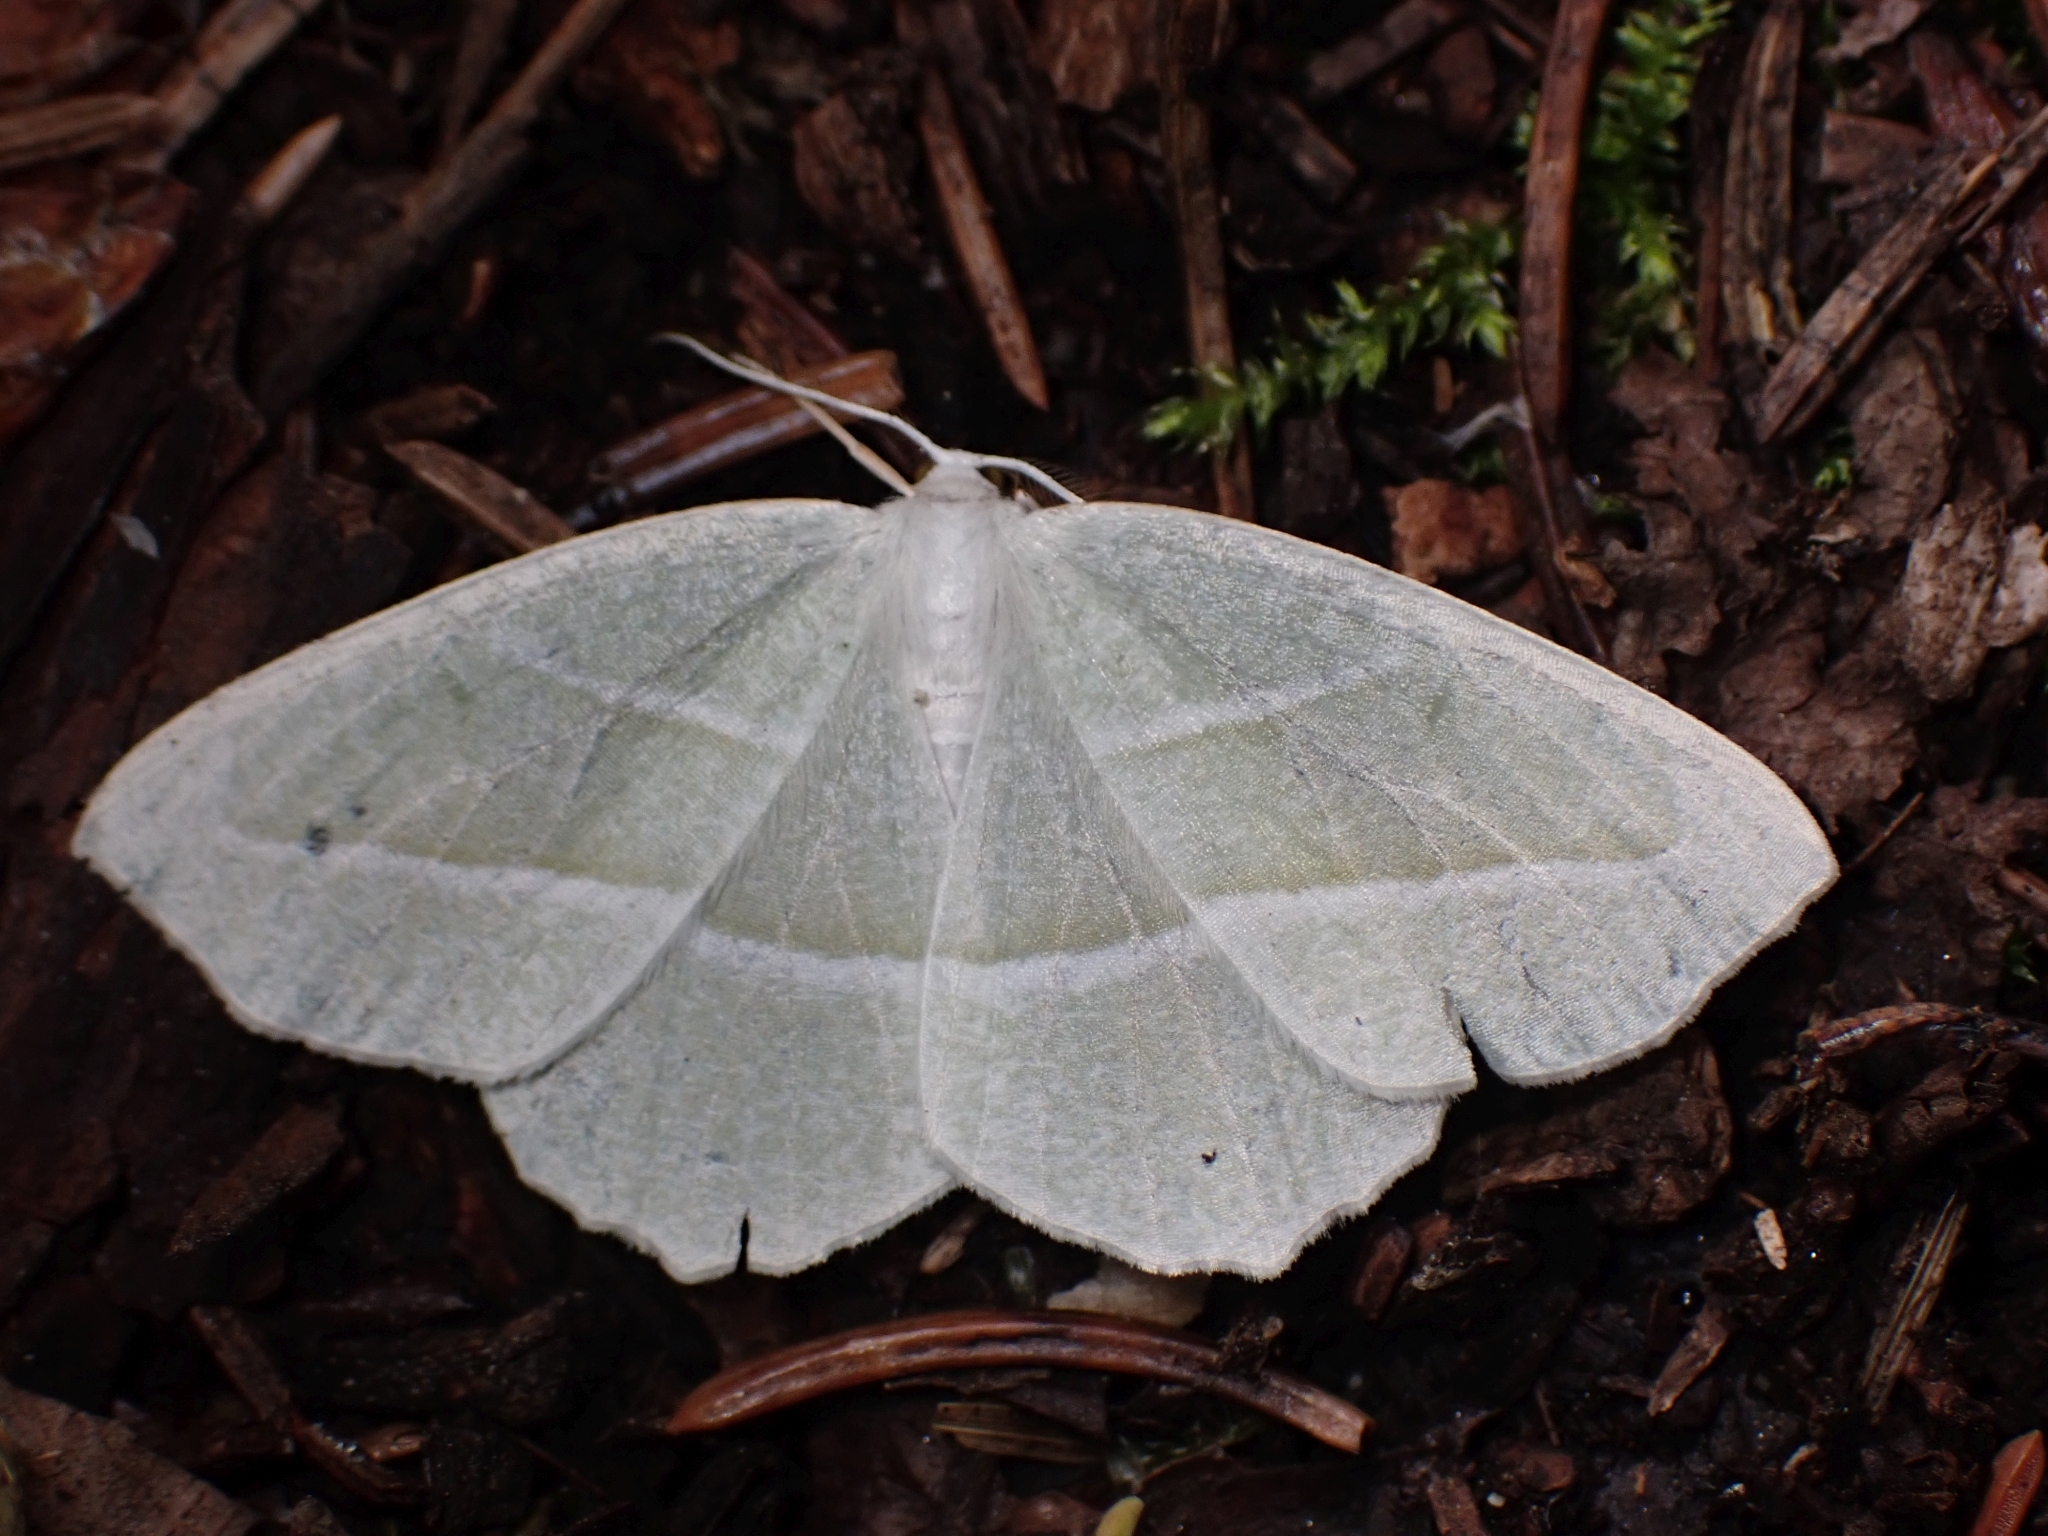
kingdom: Animalia
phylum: Arthropoda
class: Insecta
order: Lepidoptera
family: Geometridae
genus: Campaea
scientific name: Campaea perlata
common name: Fringed looper
